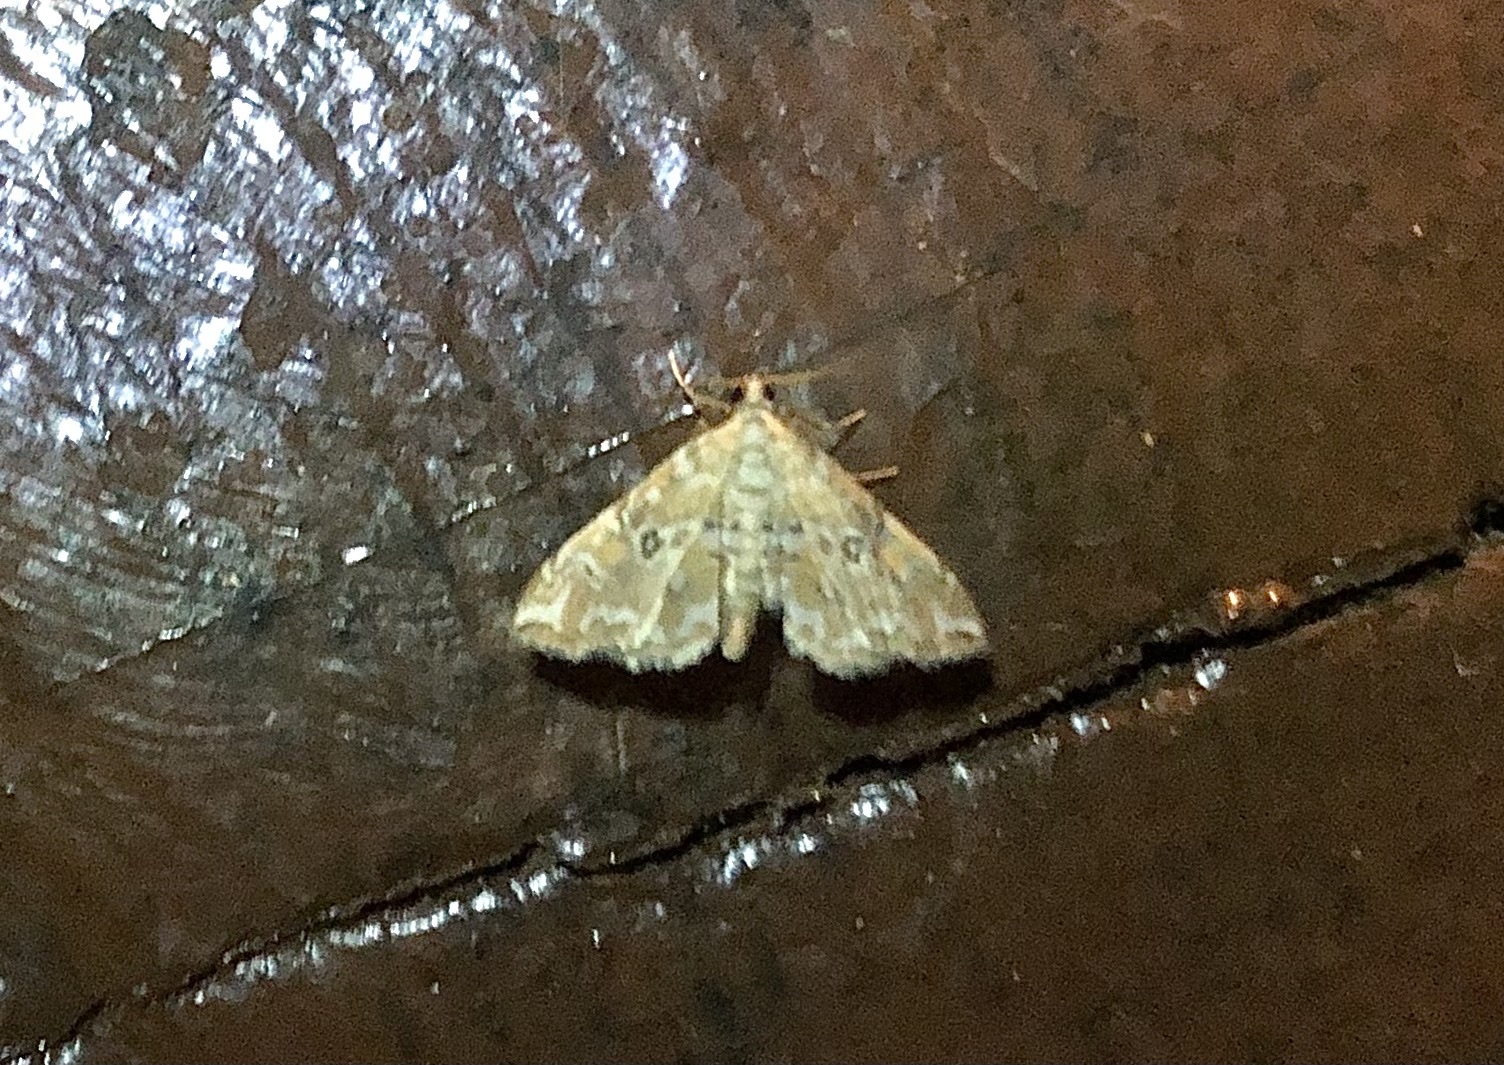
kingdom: Animalia
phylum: Arthropoda
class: Insecta
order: Lepidoptera
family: Crambidae
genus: Elophila
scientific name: Elophila icciusalis
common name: Pondside pyralid moth
